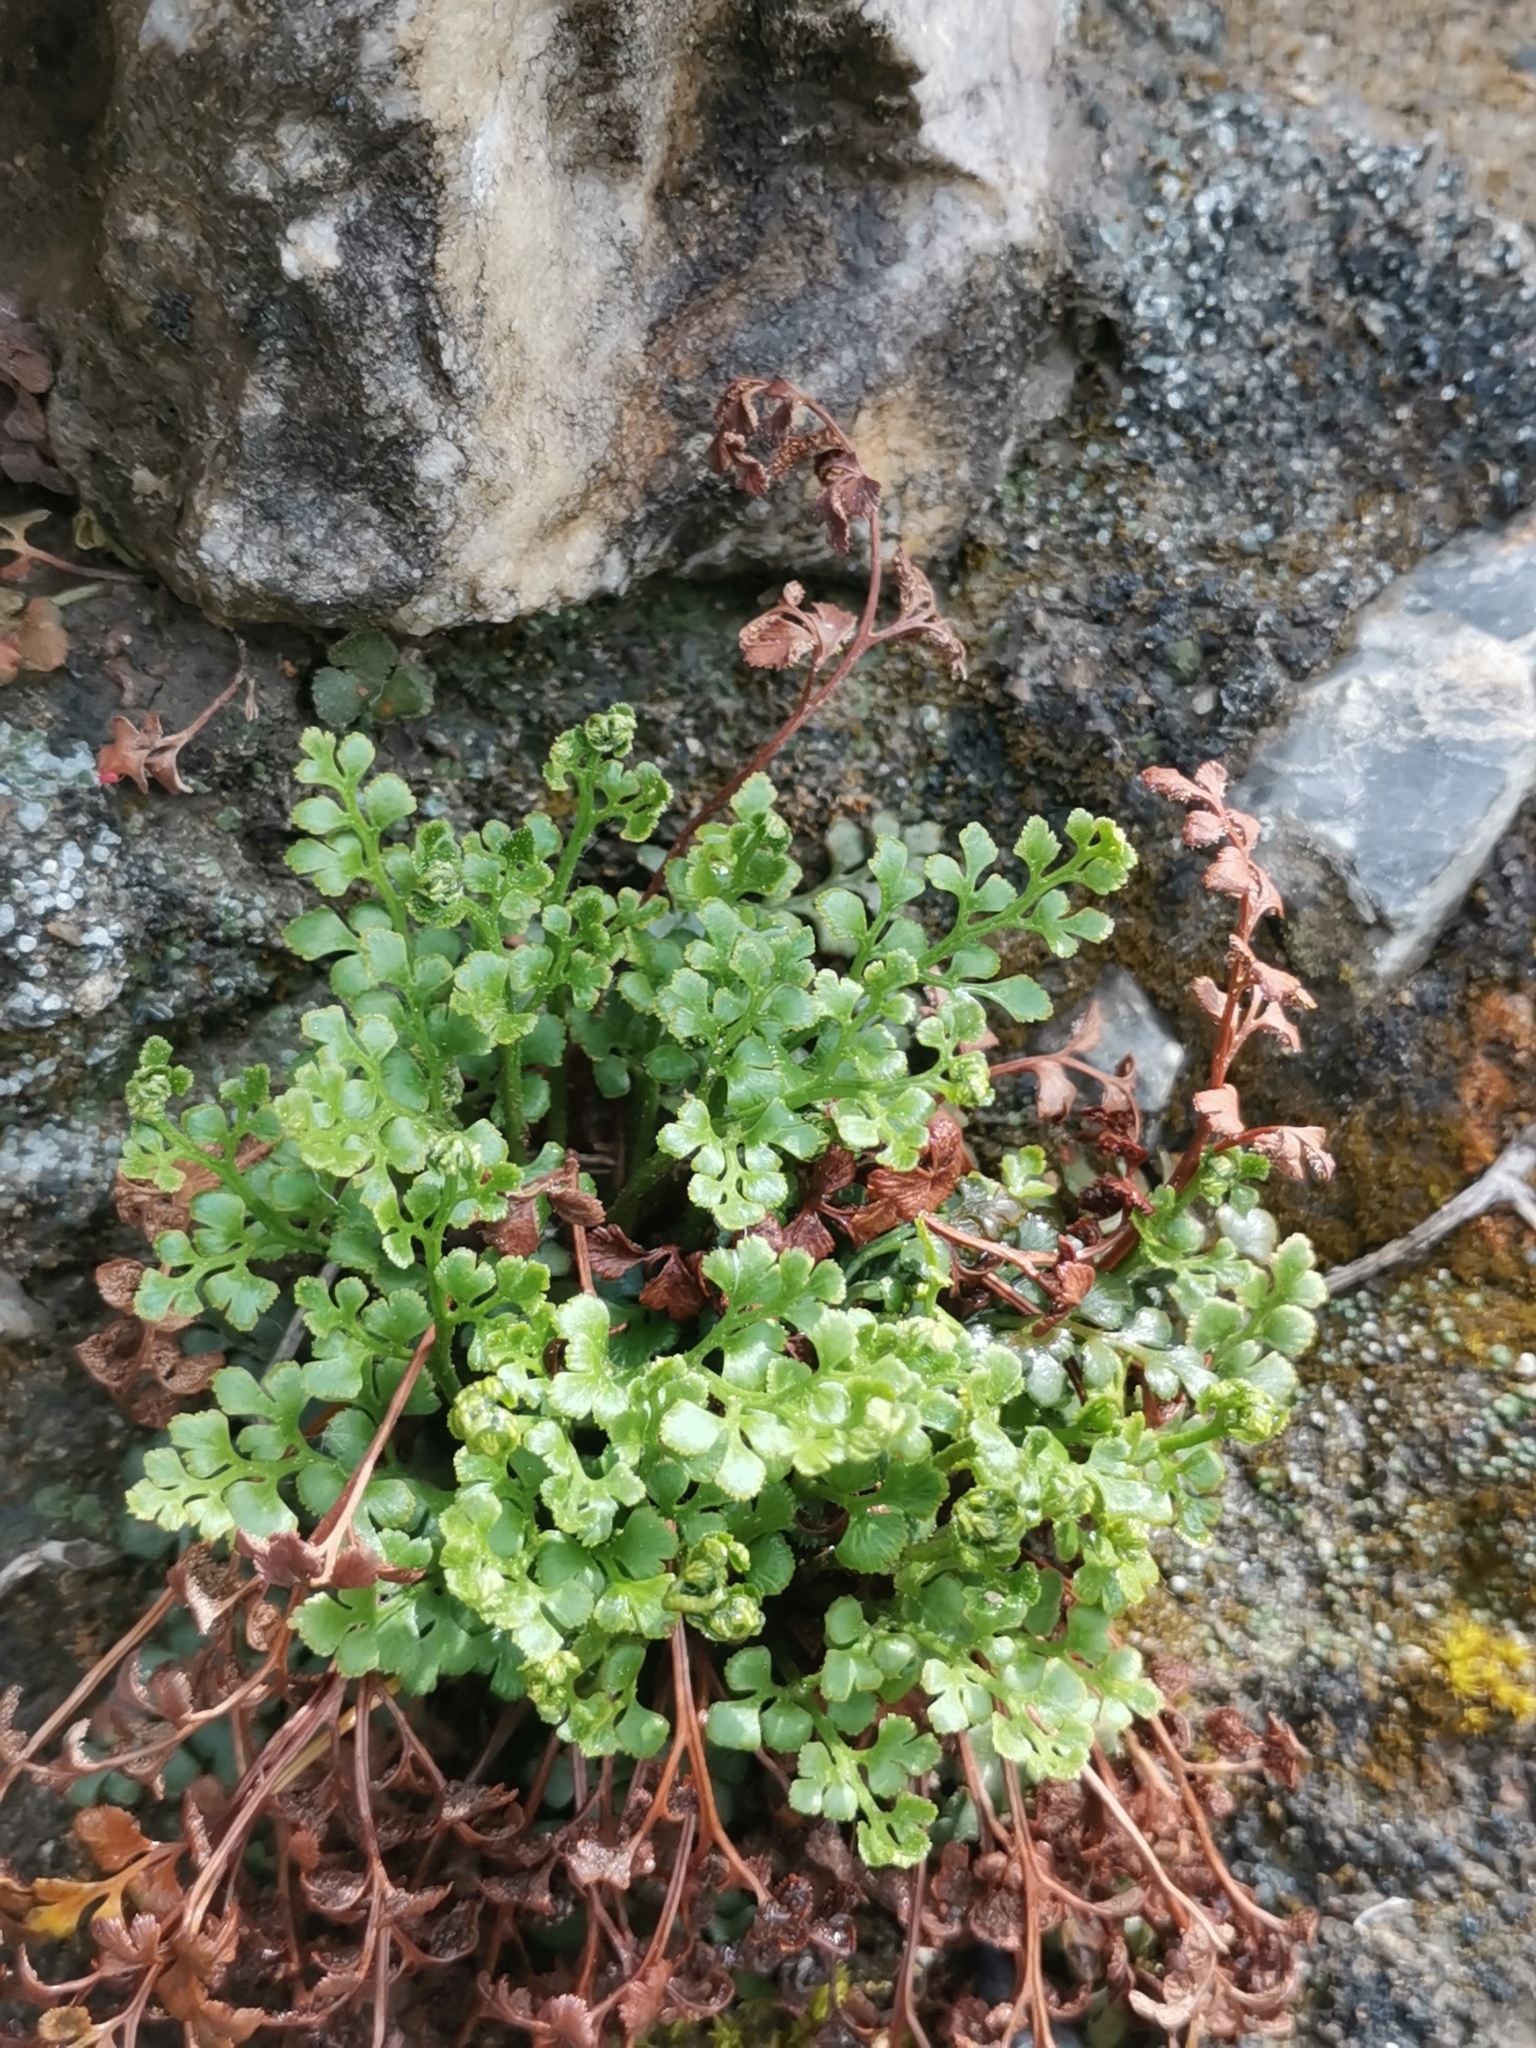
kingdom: Plantae
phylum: Tracheophyta
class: Polypodiopsida
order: Polypodiales
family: Aspleniaceae
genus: Asplenium
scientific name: Asplenium ruta-muraria
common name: Wall-rue
